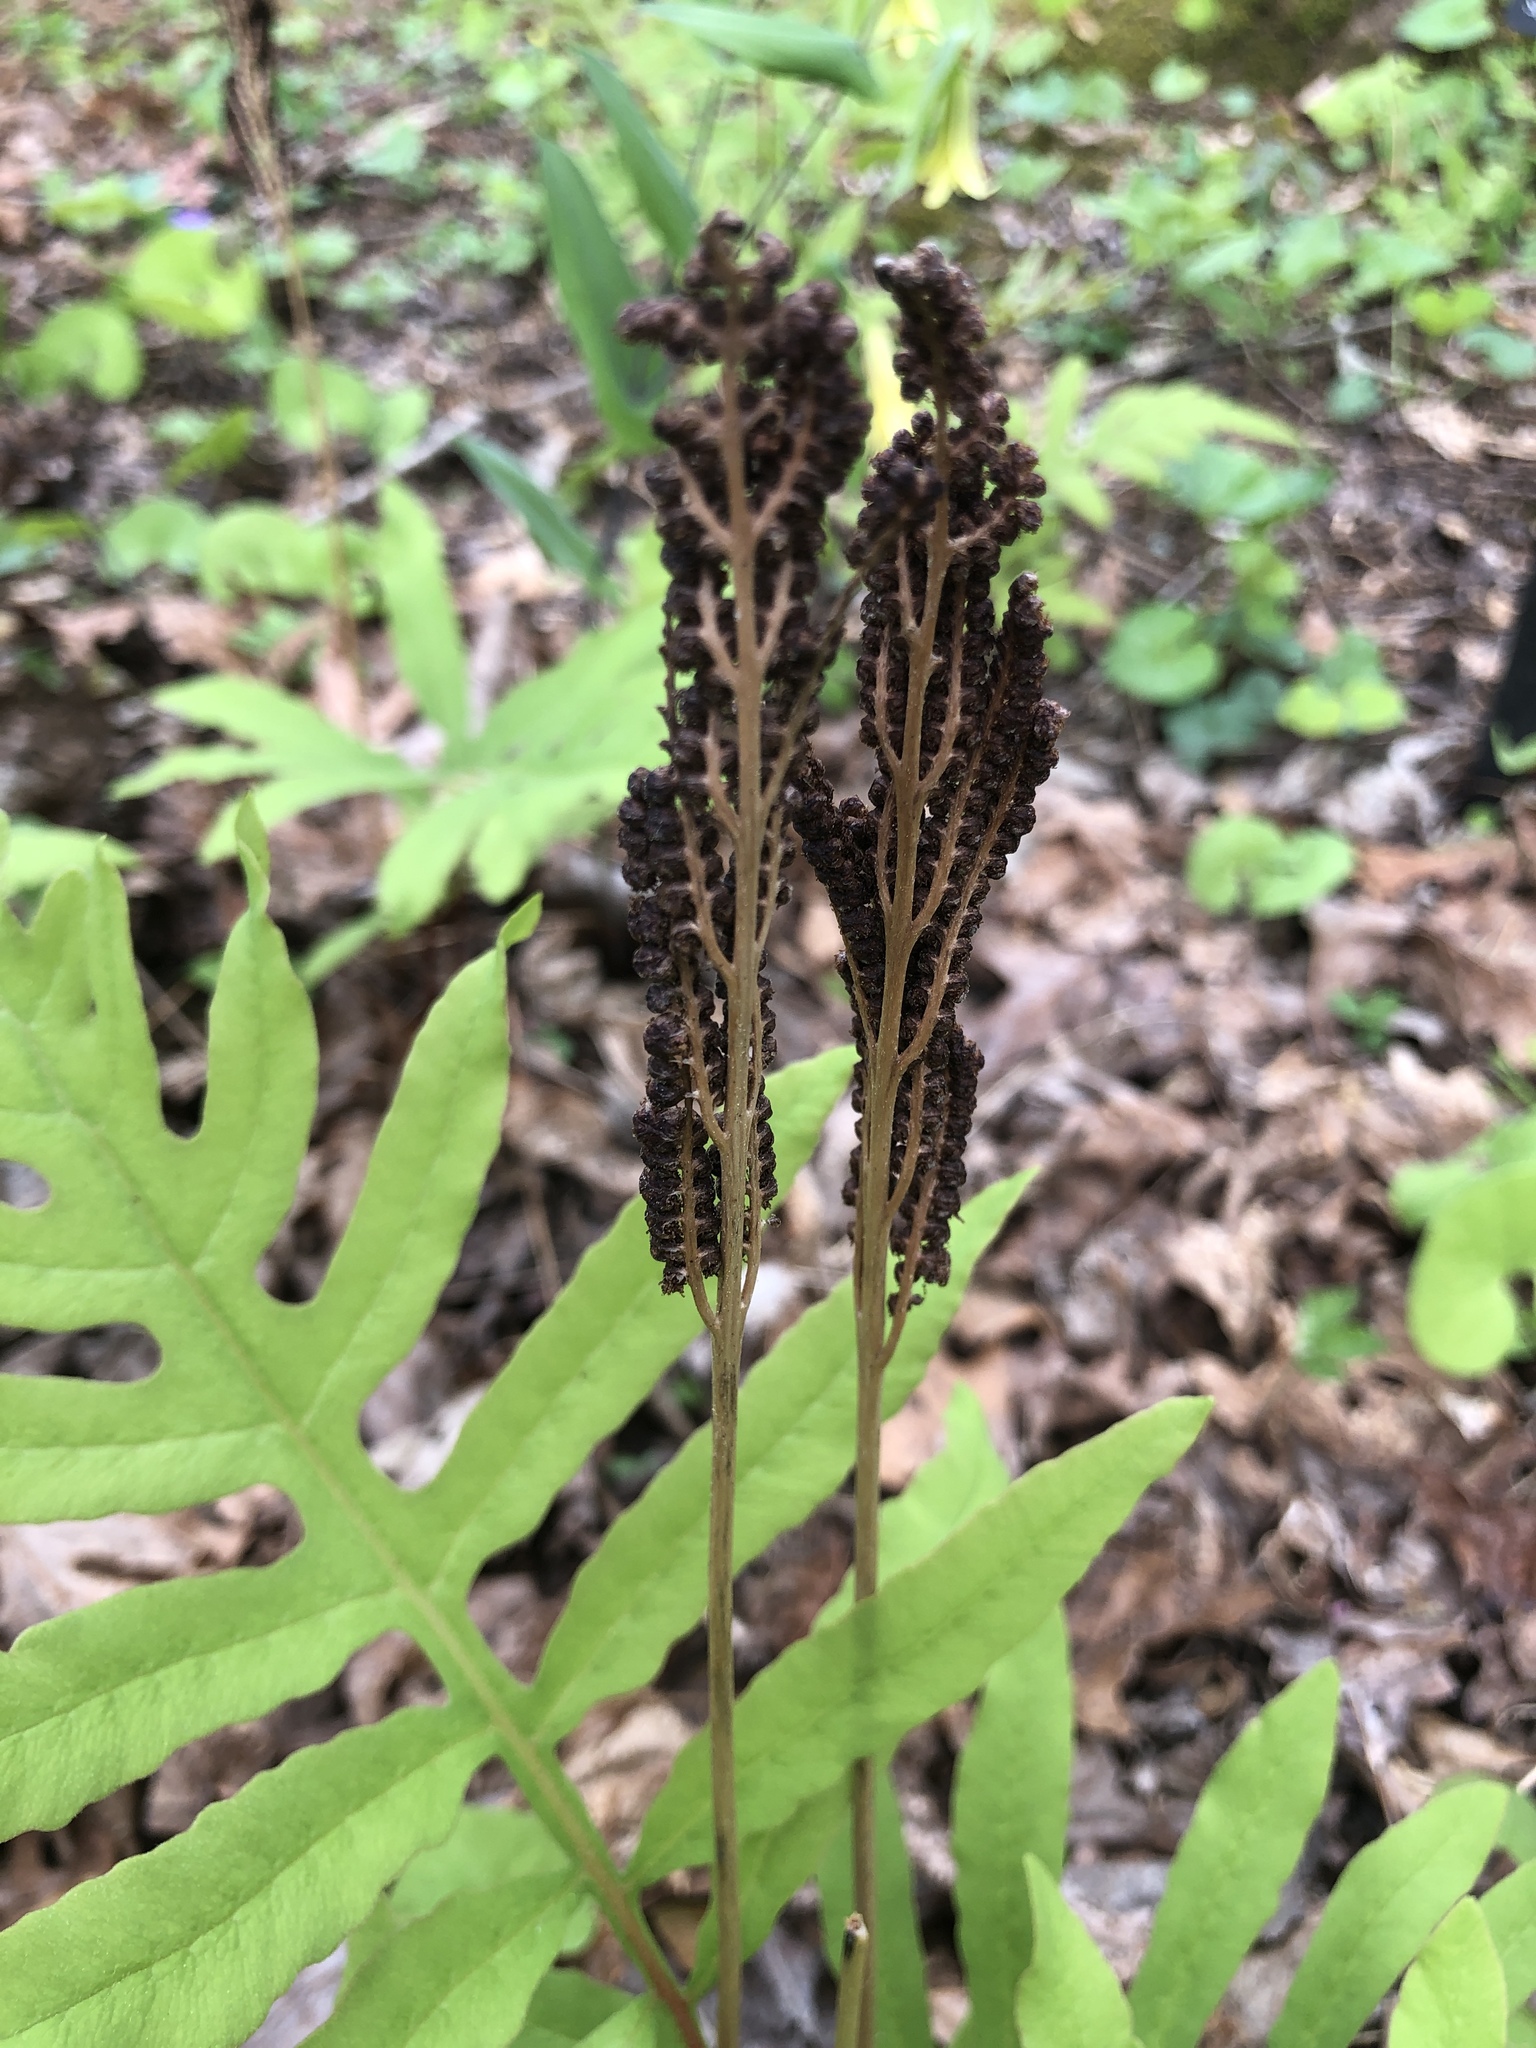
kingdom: Plantae
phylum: Tracheophyta
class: Polypodiopsida
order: Polypodiales
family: Onocleaceae
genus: Onoclea
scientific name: Onoclea sensibilis
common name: Sensitive fern
